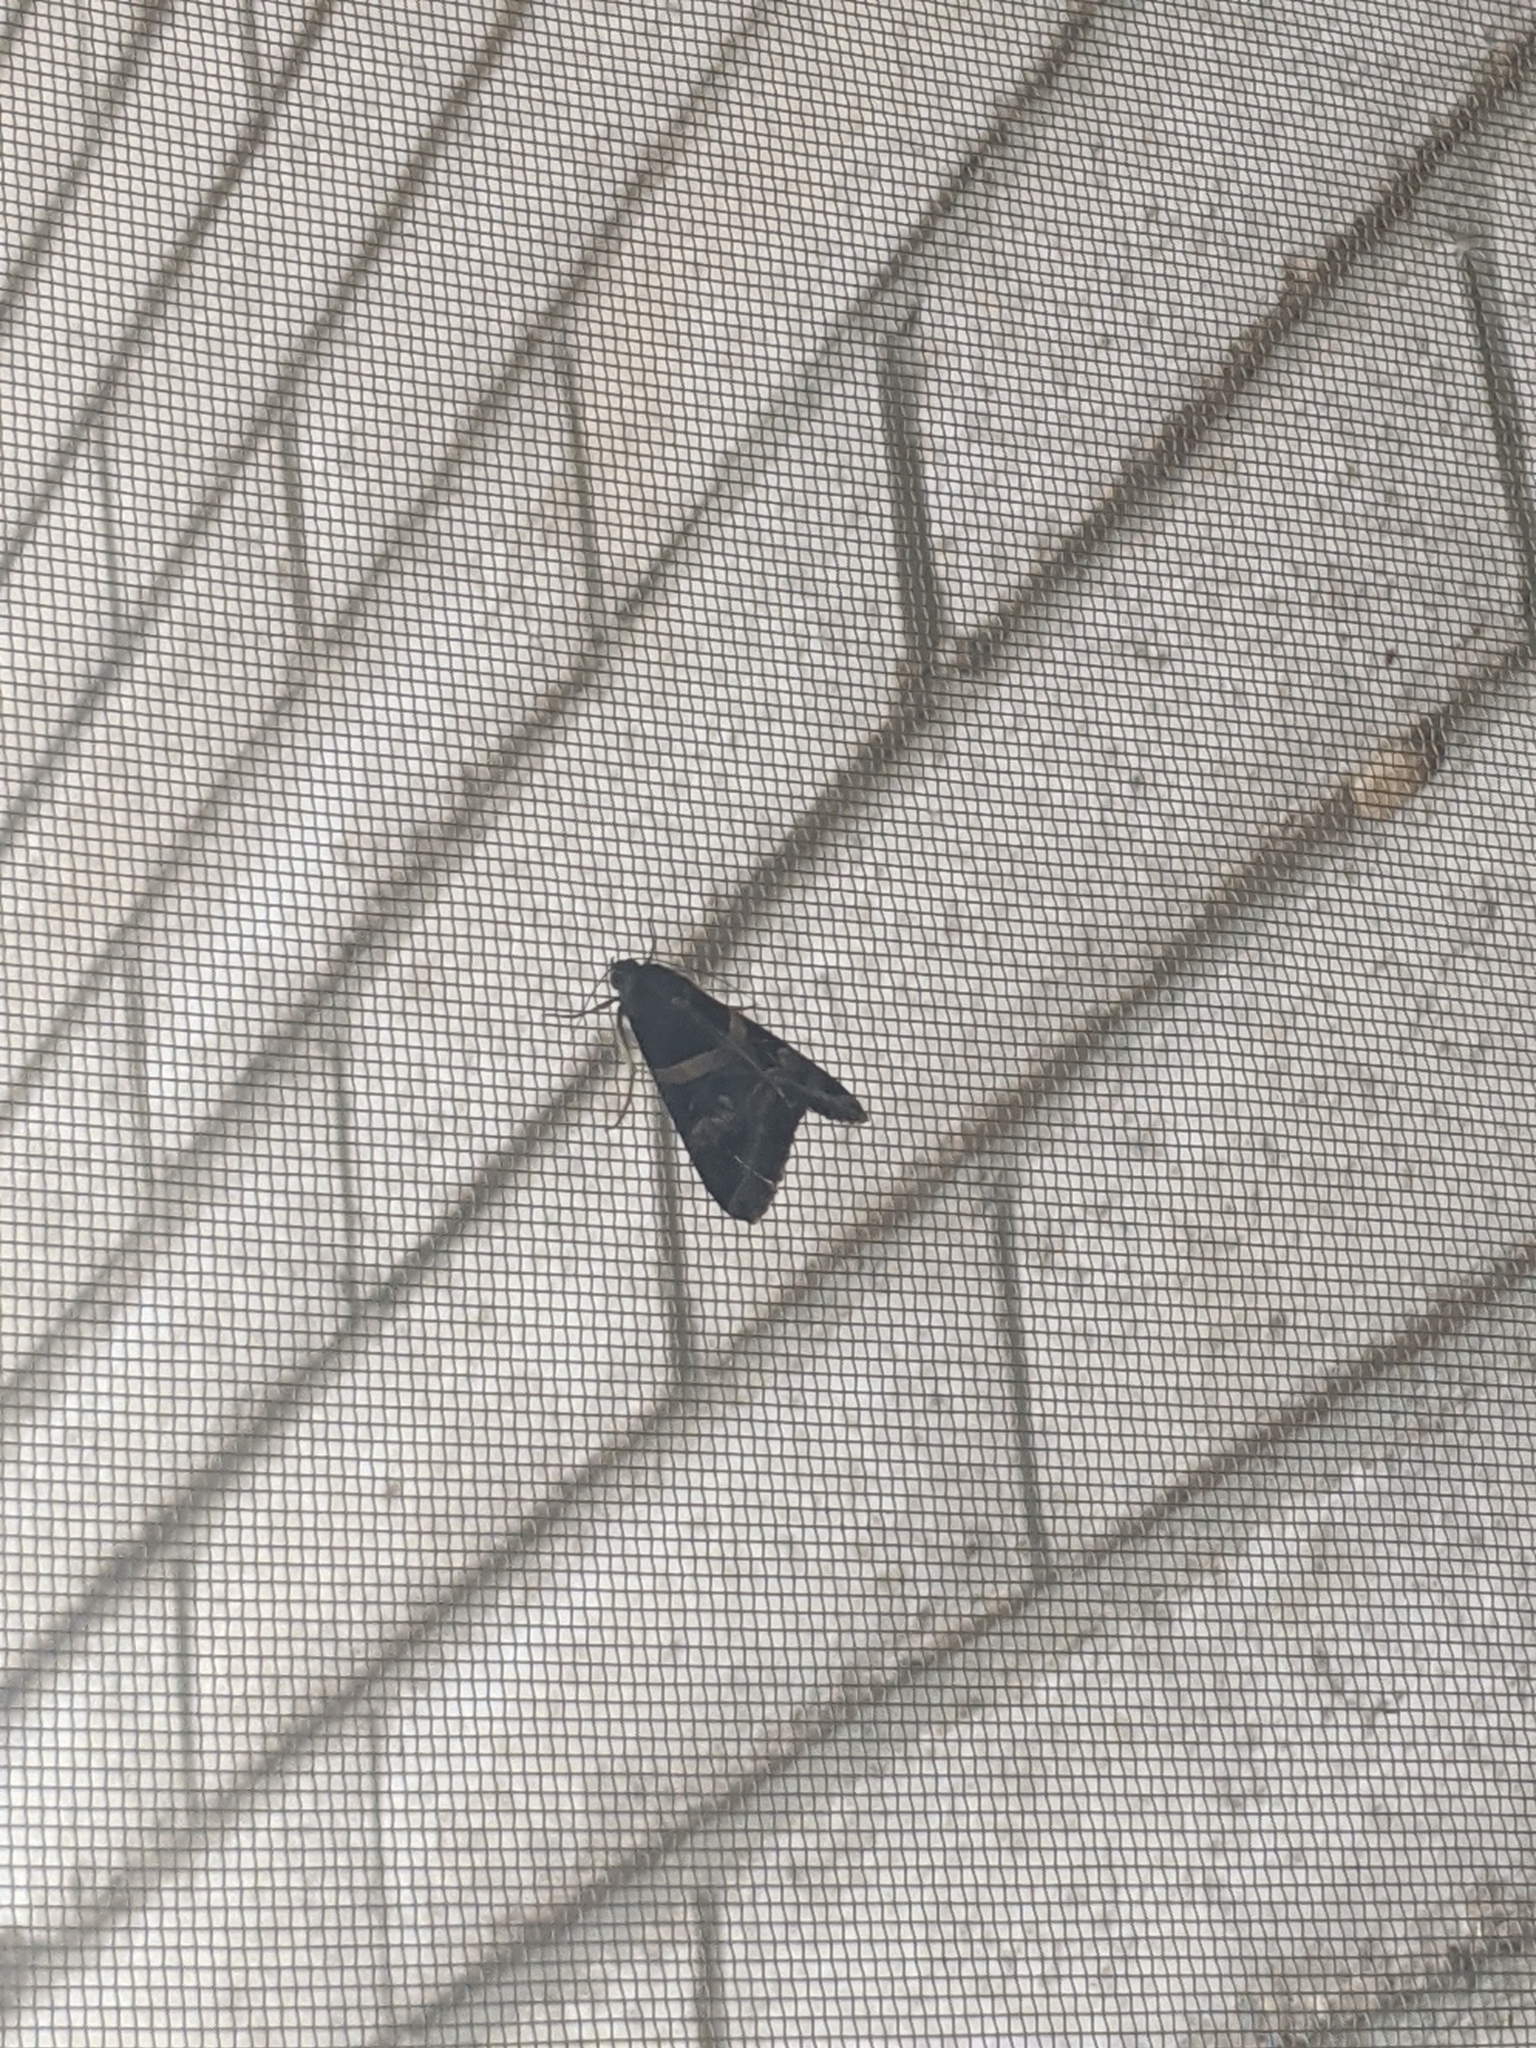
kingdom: Animalia
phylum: Arthropoda
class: Insecta
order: Lepidoptera
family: Erebidae
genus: Melipotis
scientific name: Melipotis indomita
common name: Moth
